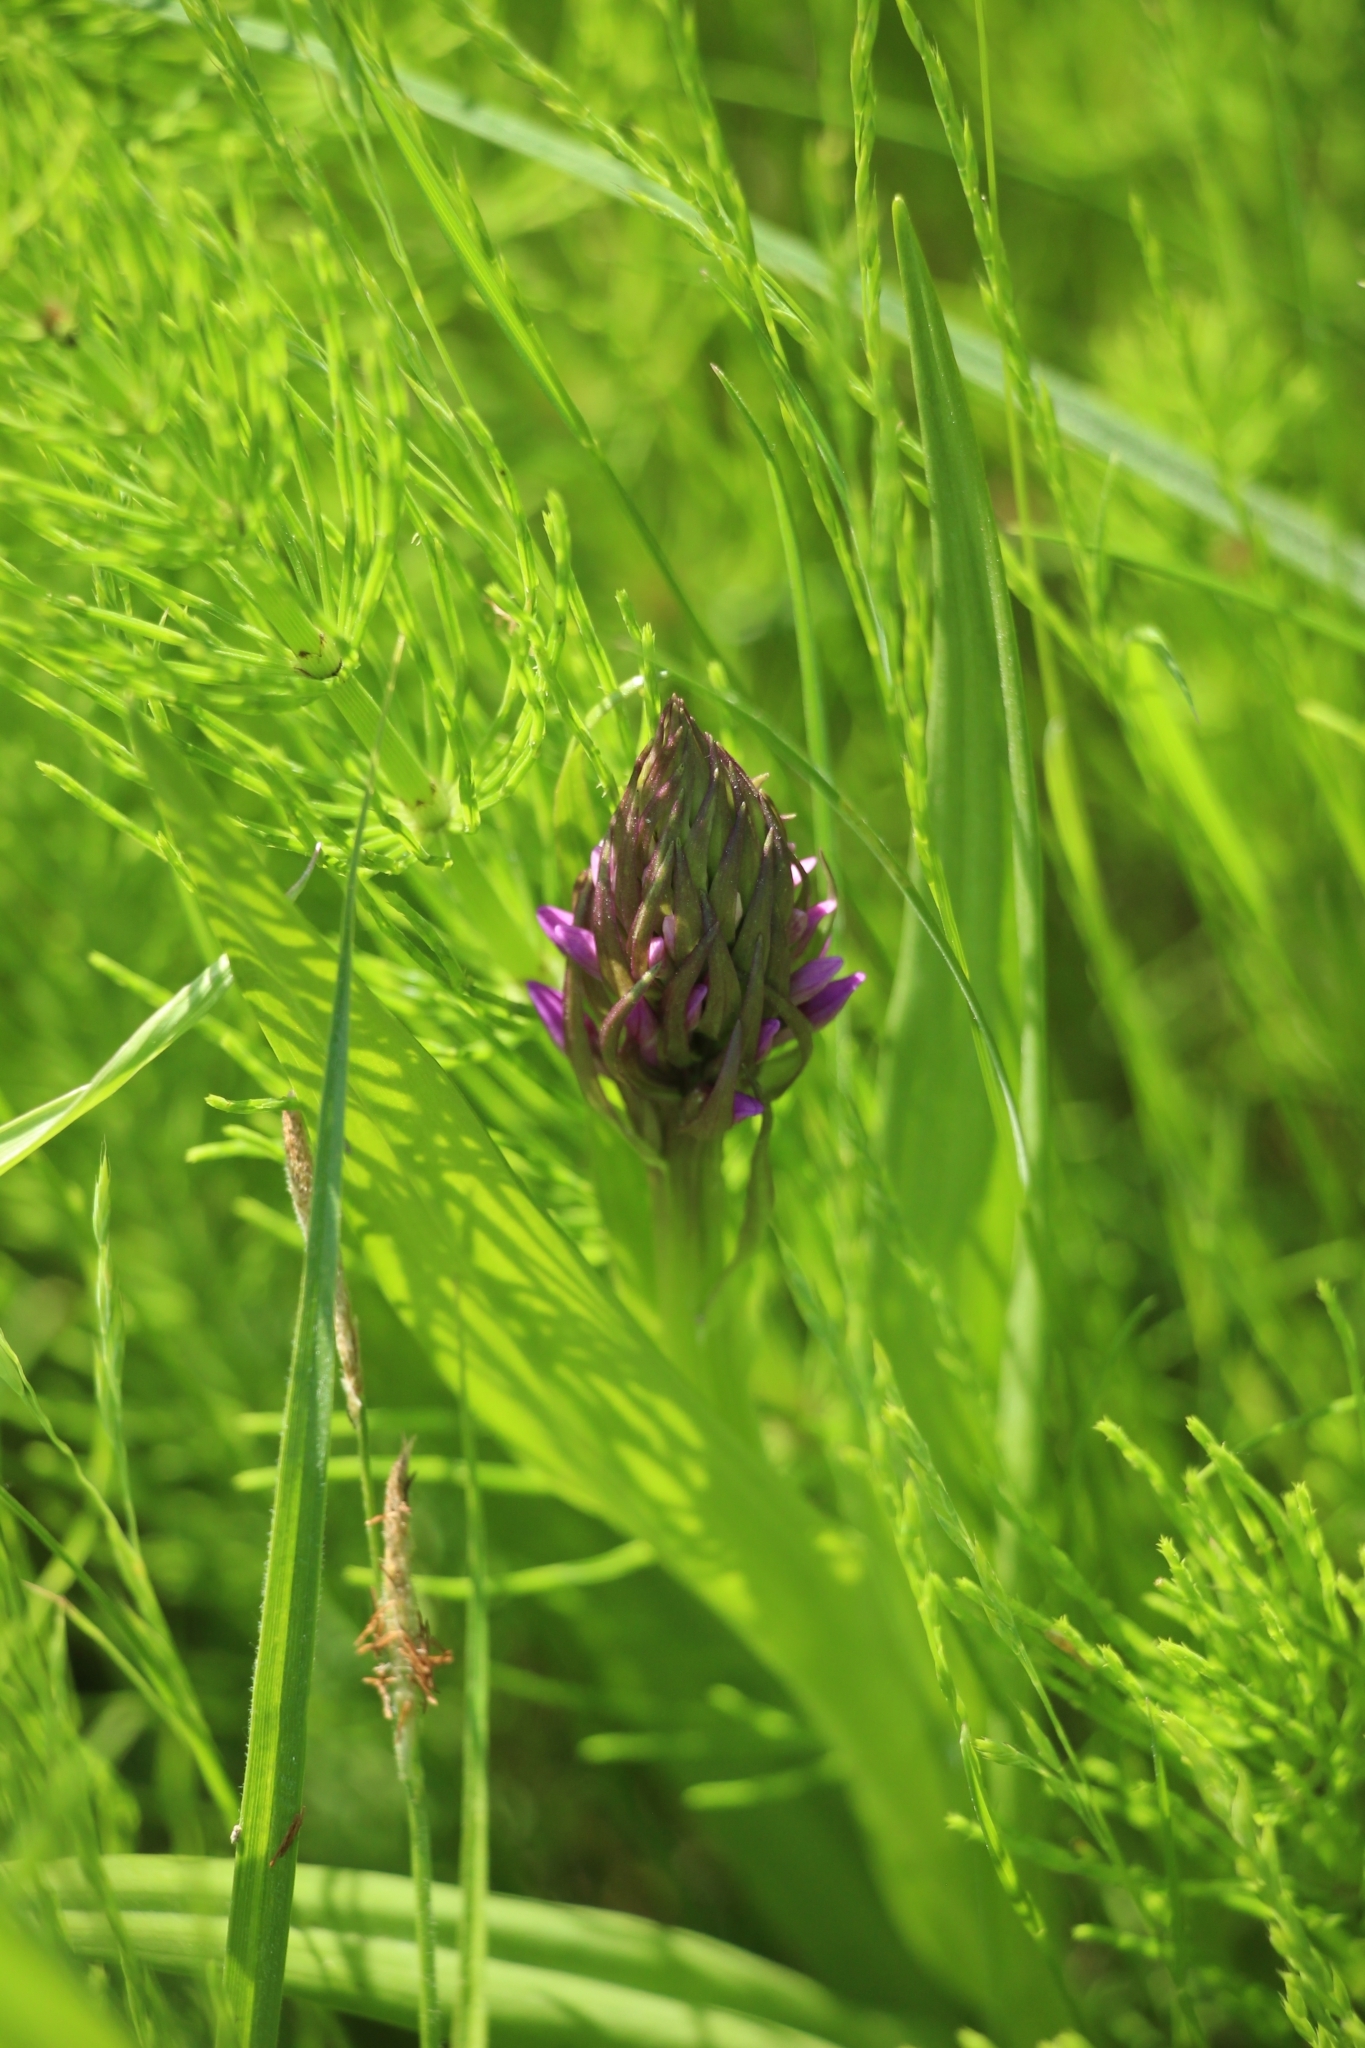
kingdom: Plantae
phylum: Tracheophyta
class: Liliopsida
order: Asparagales
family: Orchidaceae
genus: Dactylorhiza
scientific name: Dactylorhiza incarnata
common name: Early marsh-orchid
